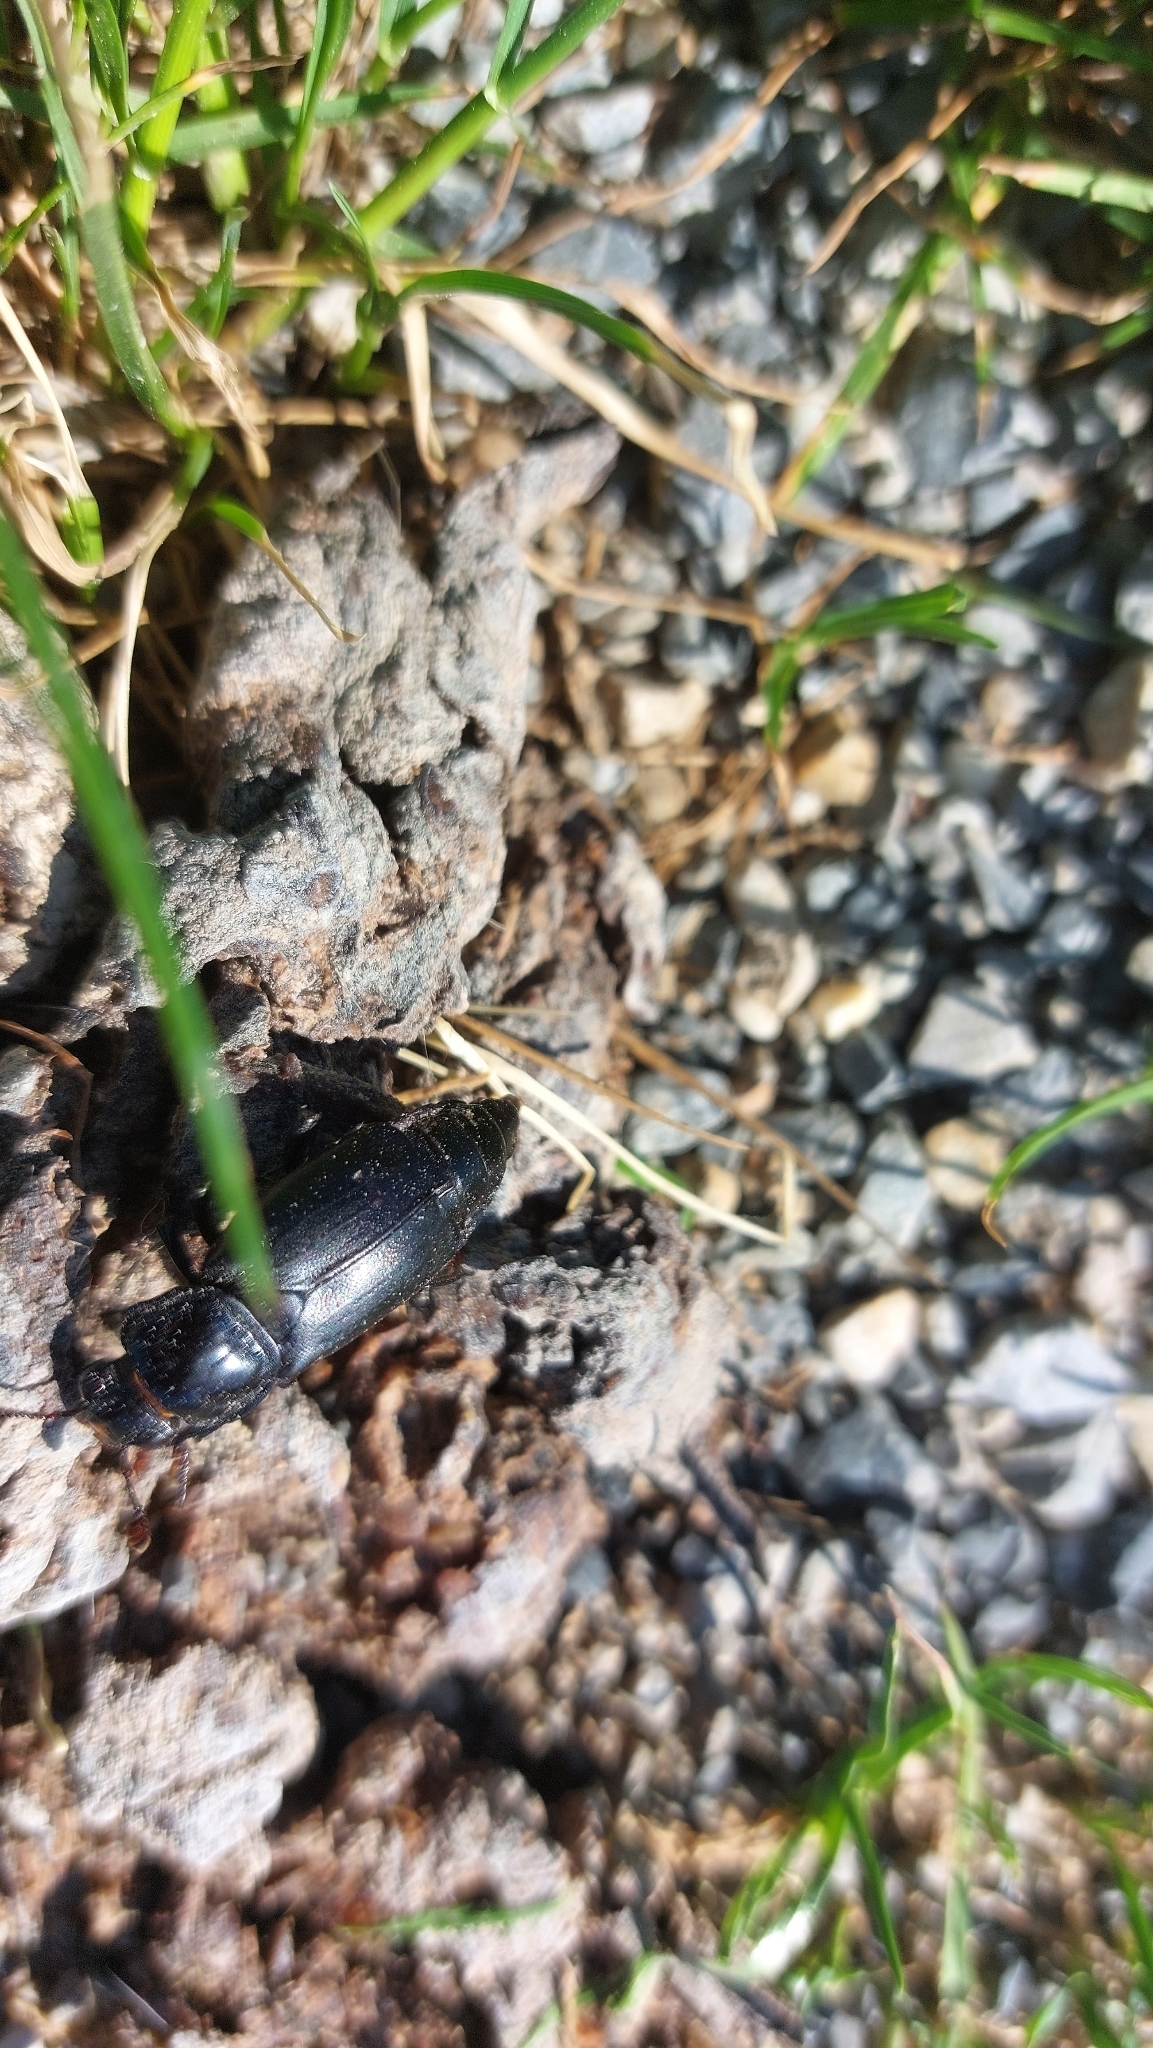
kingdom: Animalia
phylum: Arthropoda
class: Insecta
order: Coleoptera
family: Staphylinidae
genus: Nicrophorus
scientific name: Nicrophorus humator
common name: Black sexton beetle
